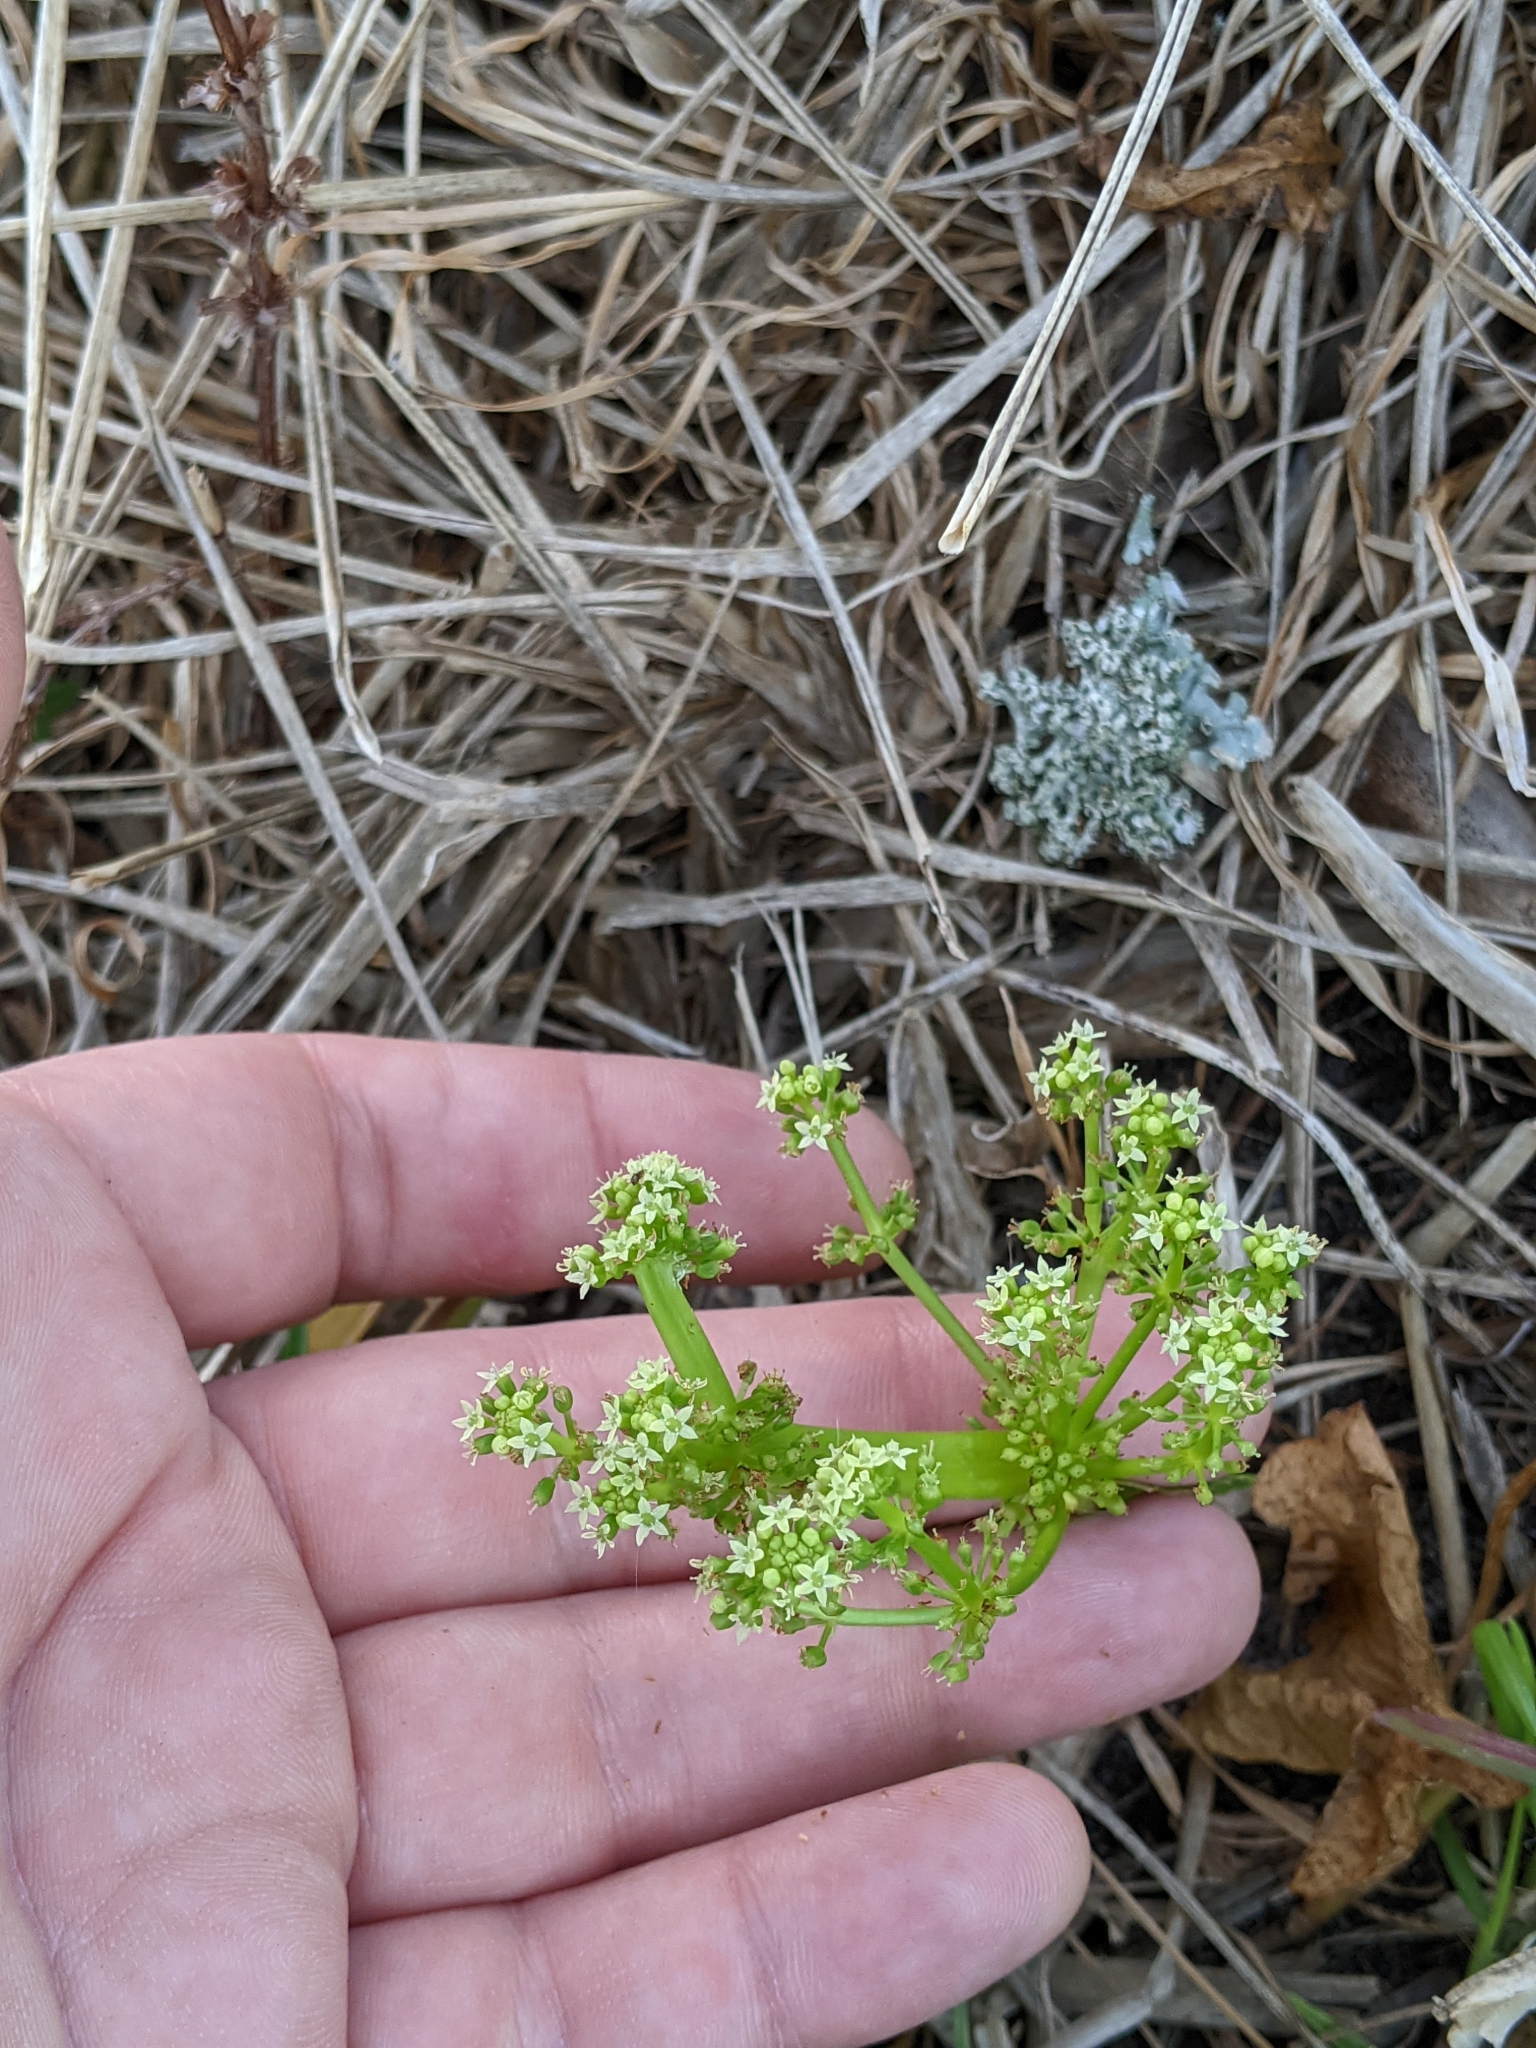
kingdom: Plantae
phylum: Tracheophyta
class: Magnoliopsida
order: Apiales
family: Araliaceae
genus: Hydrocotyle
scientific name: Hydrocotyle bonariensis
